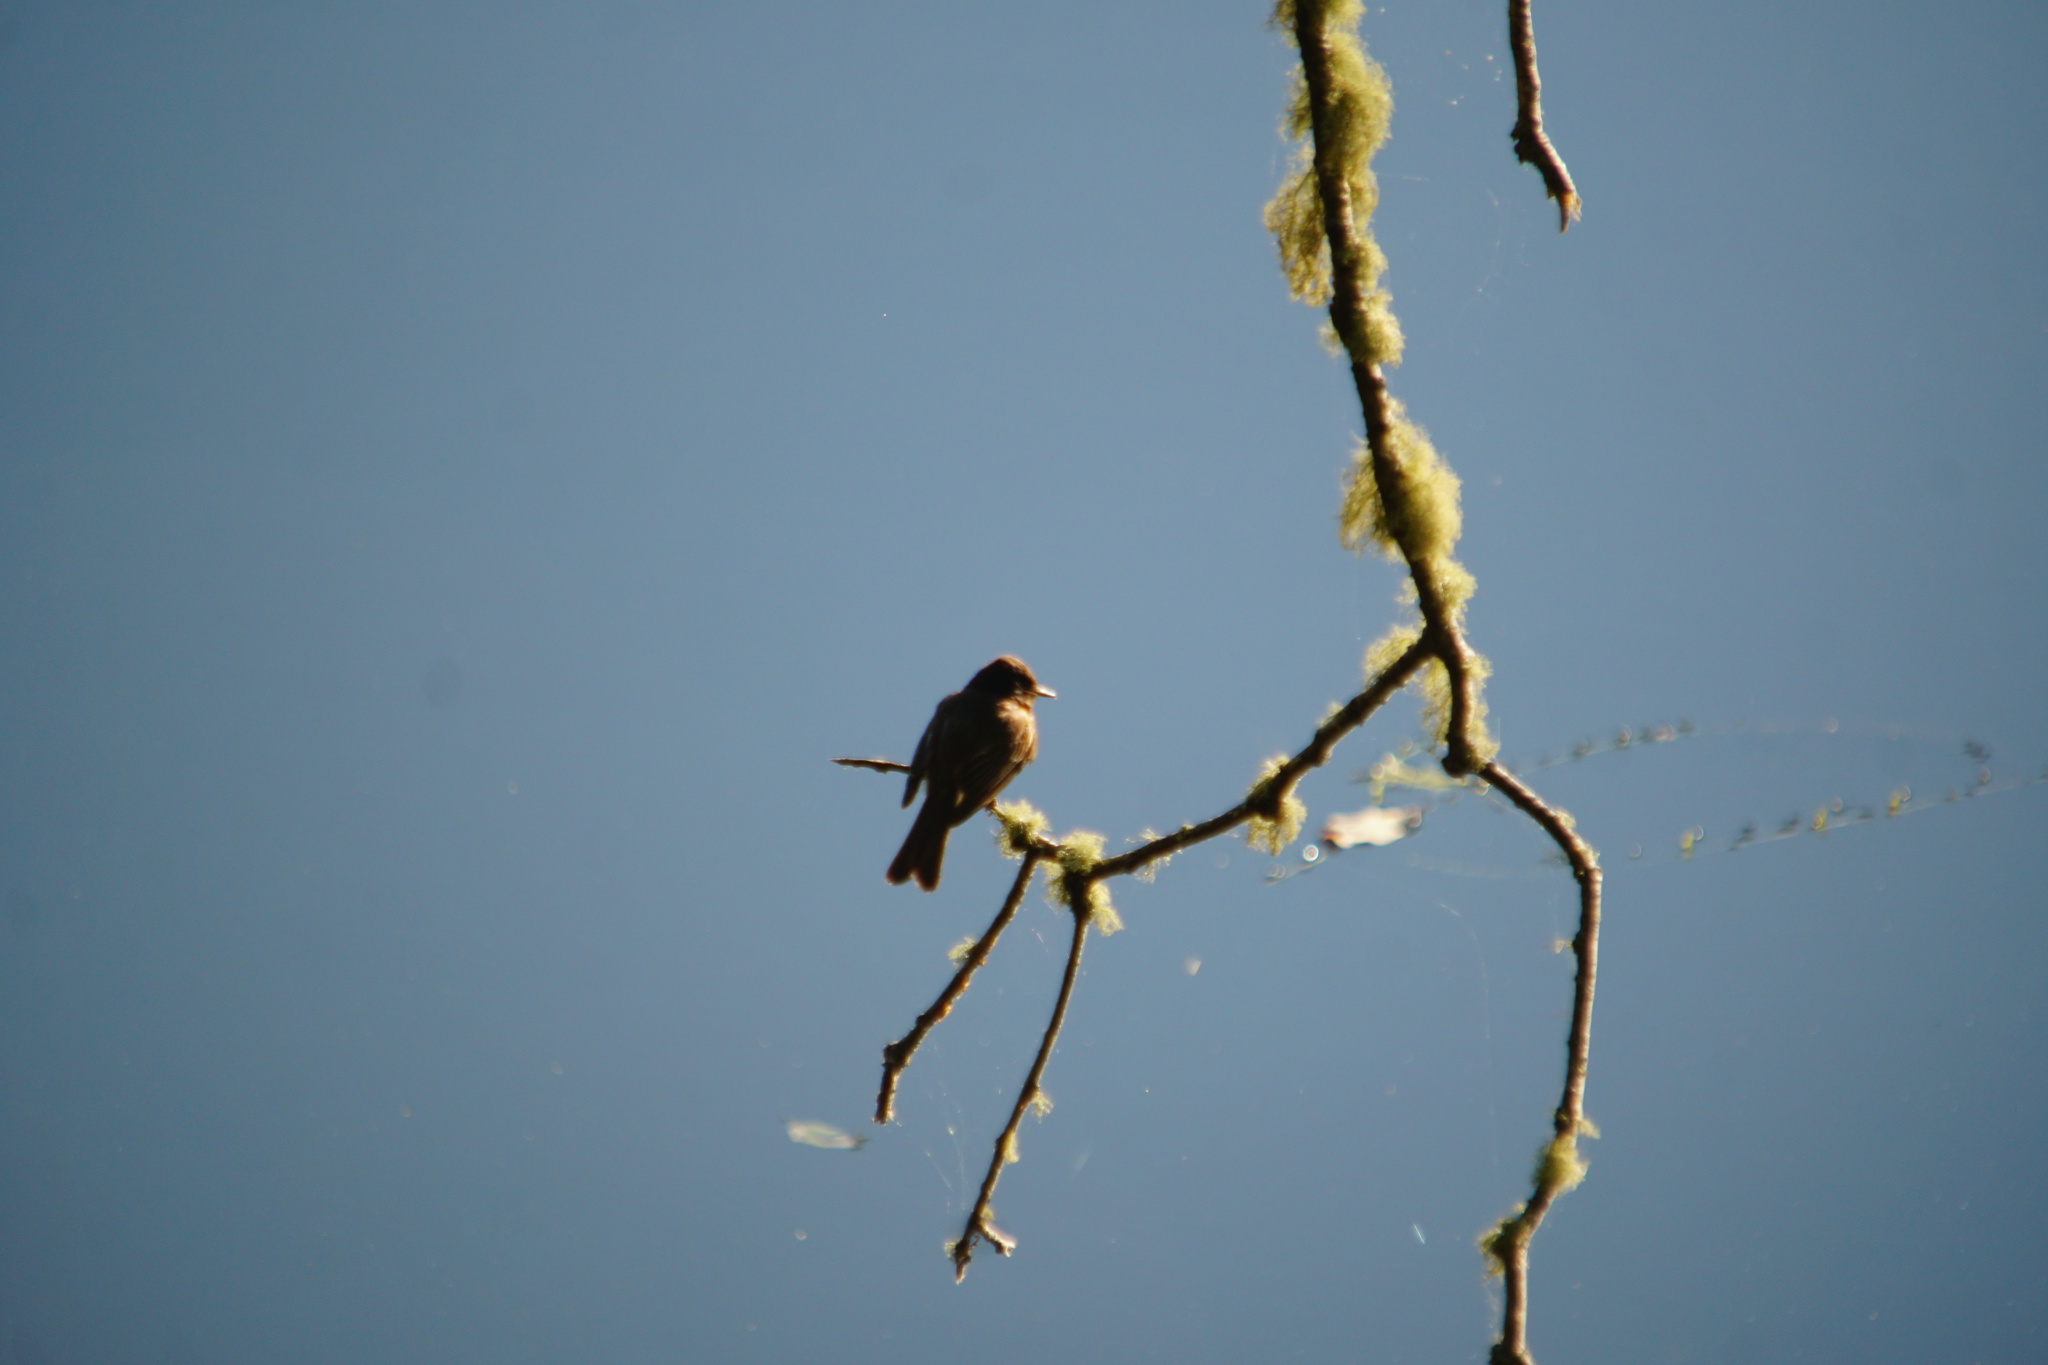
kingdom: Animalia
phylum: Chordata
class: Aves
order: Passeriformes
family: Tyrannidae
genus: Contopus
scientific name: Contopus cooperi
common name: Olive-sided flycatcher
